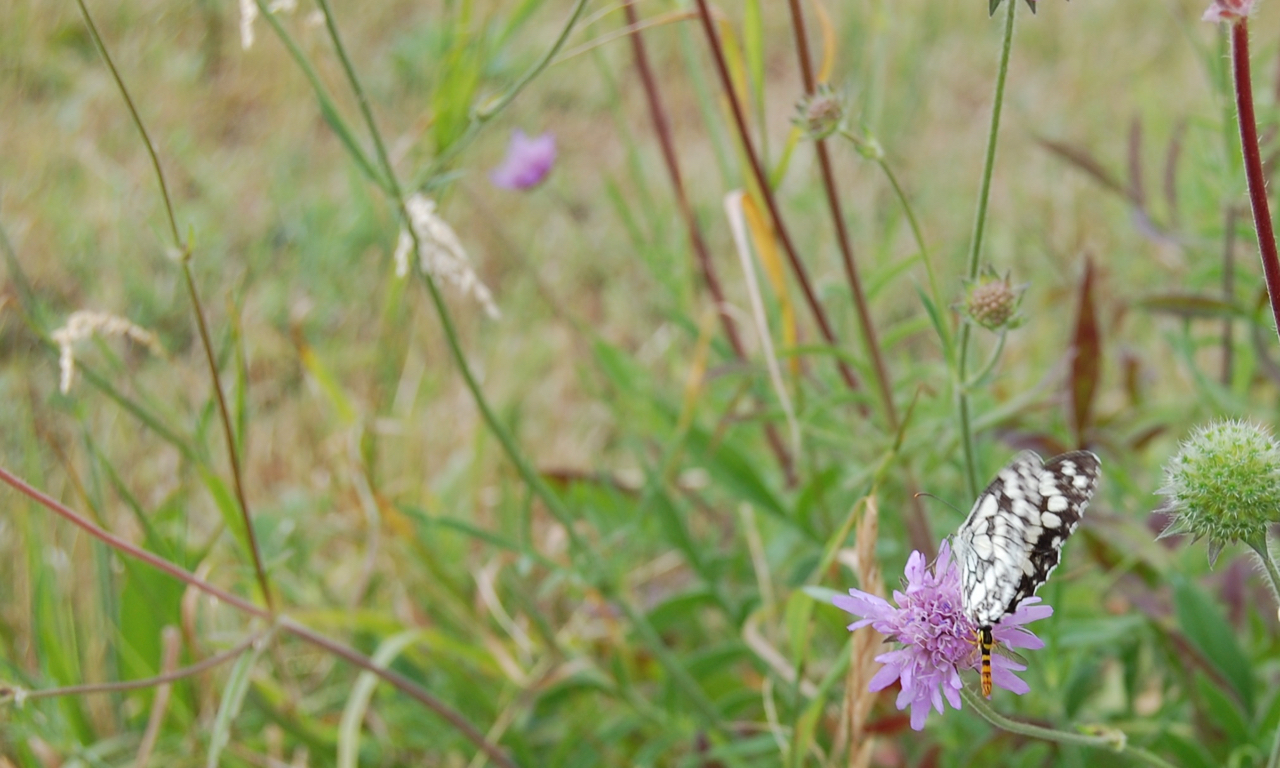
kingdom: Animalia
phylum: Arthropoda
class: Insecta
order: Lepidoptera
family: Nymphalidae
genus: Melanargia
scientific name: Melanargia galathea
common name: Marbled white
